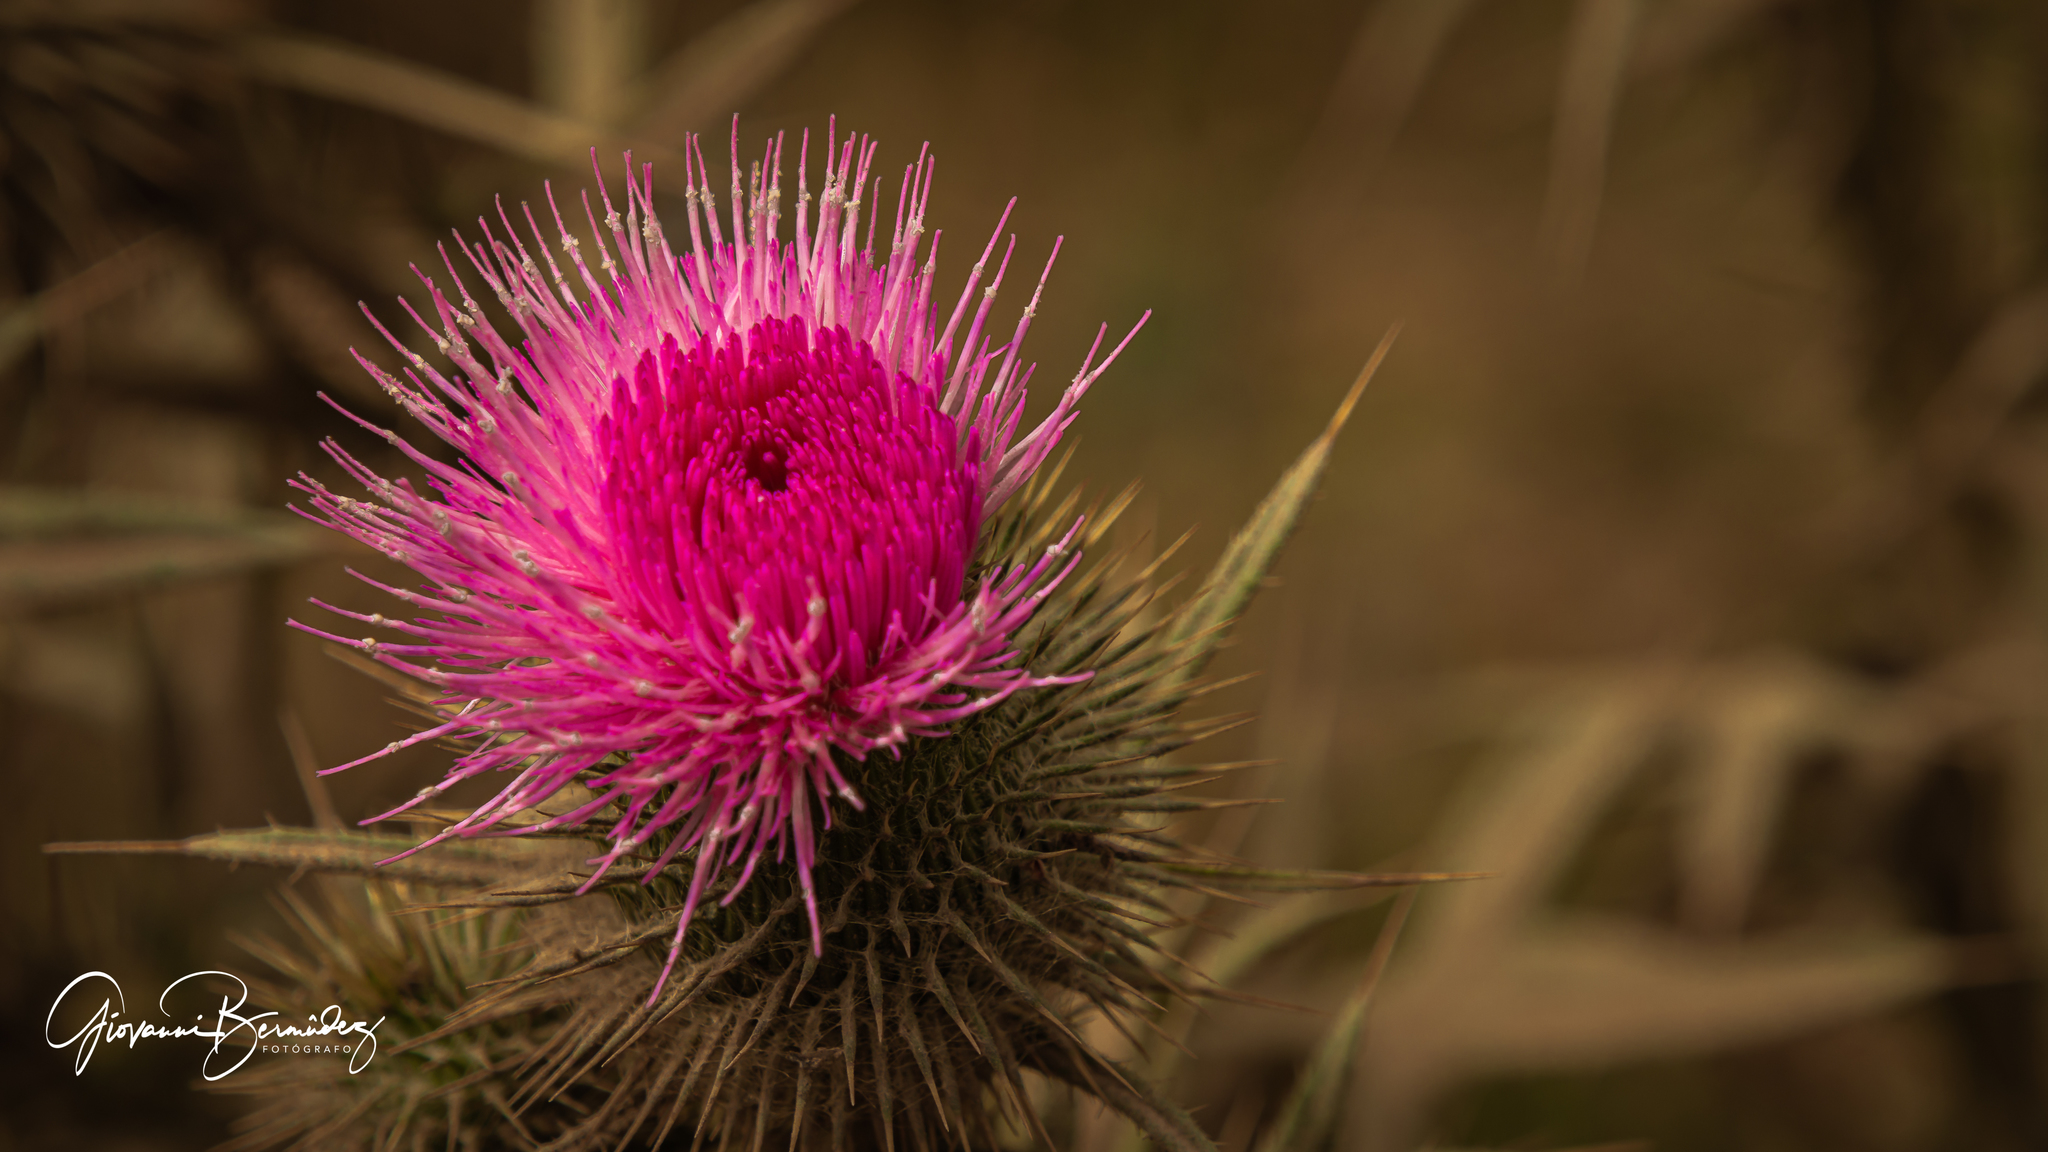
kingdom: Plantae
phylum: Tracheophyta
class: Magnoliopsida
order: Asterales
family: Asteraceae
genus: Cirsium
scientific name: Cirsium vulgare
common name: Bull thistle
